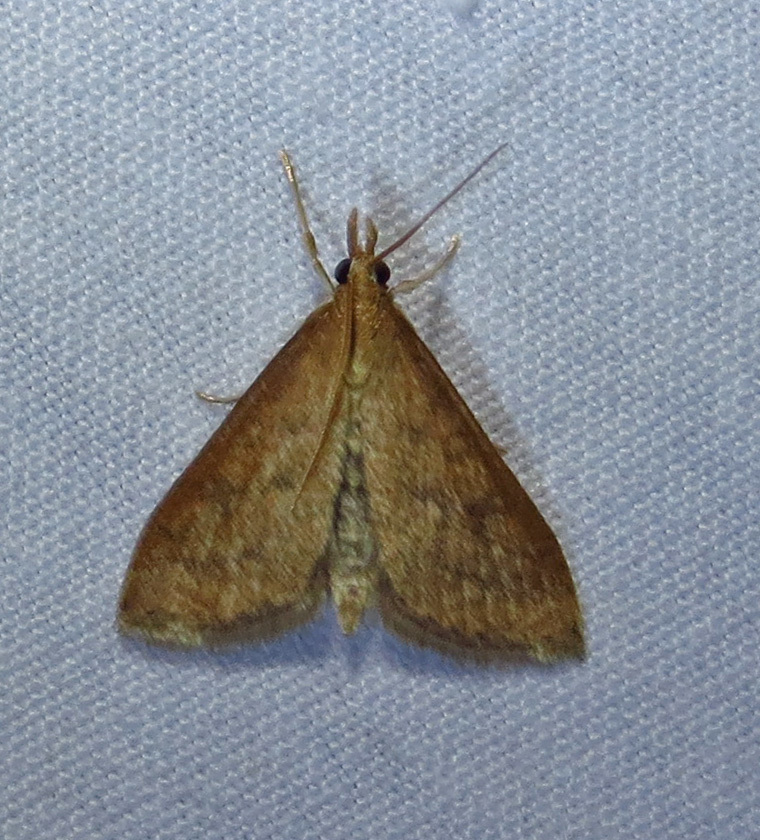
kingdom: Animalia
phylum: Arthropoda
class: Insecta
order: Lepidoptera
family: Crambidae
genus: Udea
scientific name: Udea rubigalis
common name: Celery leaftier moth
